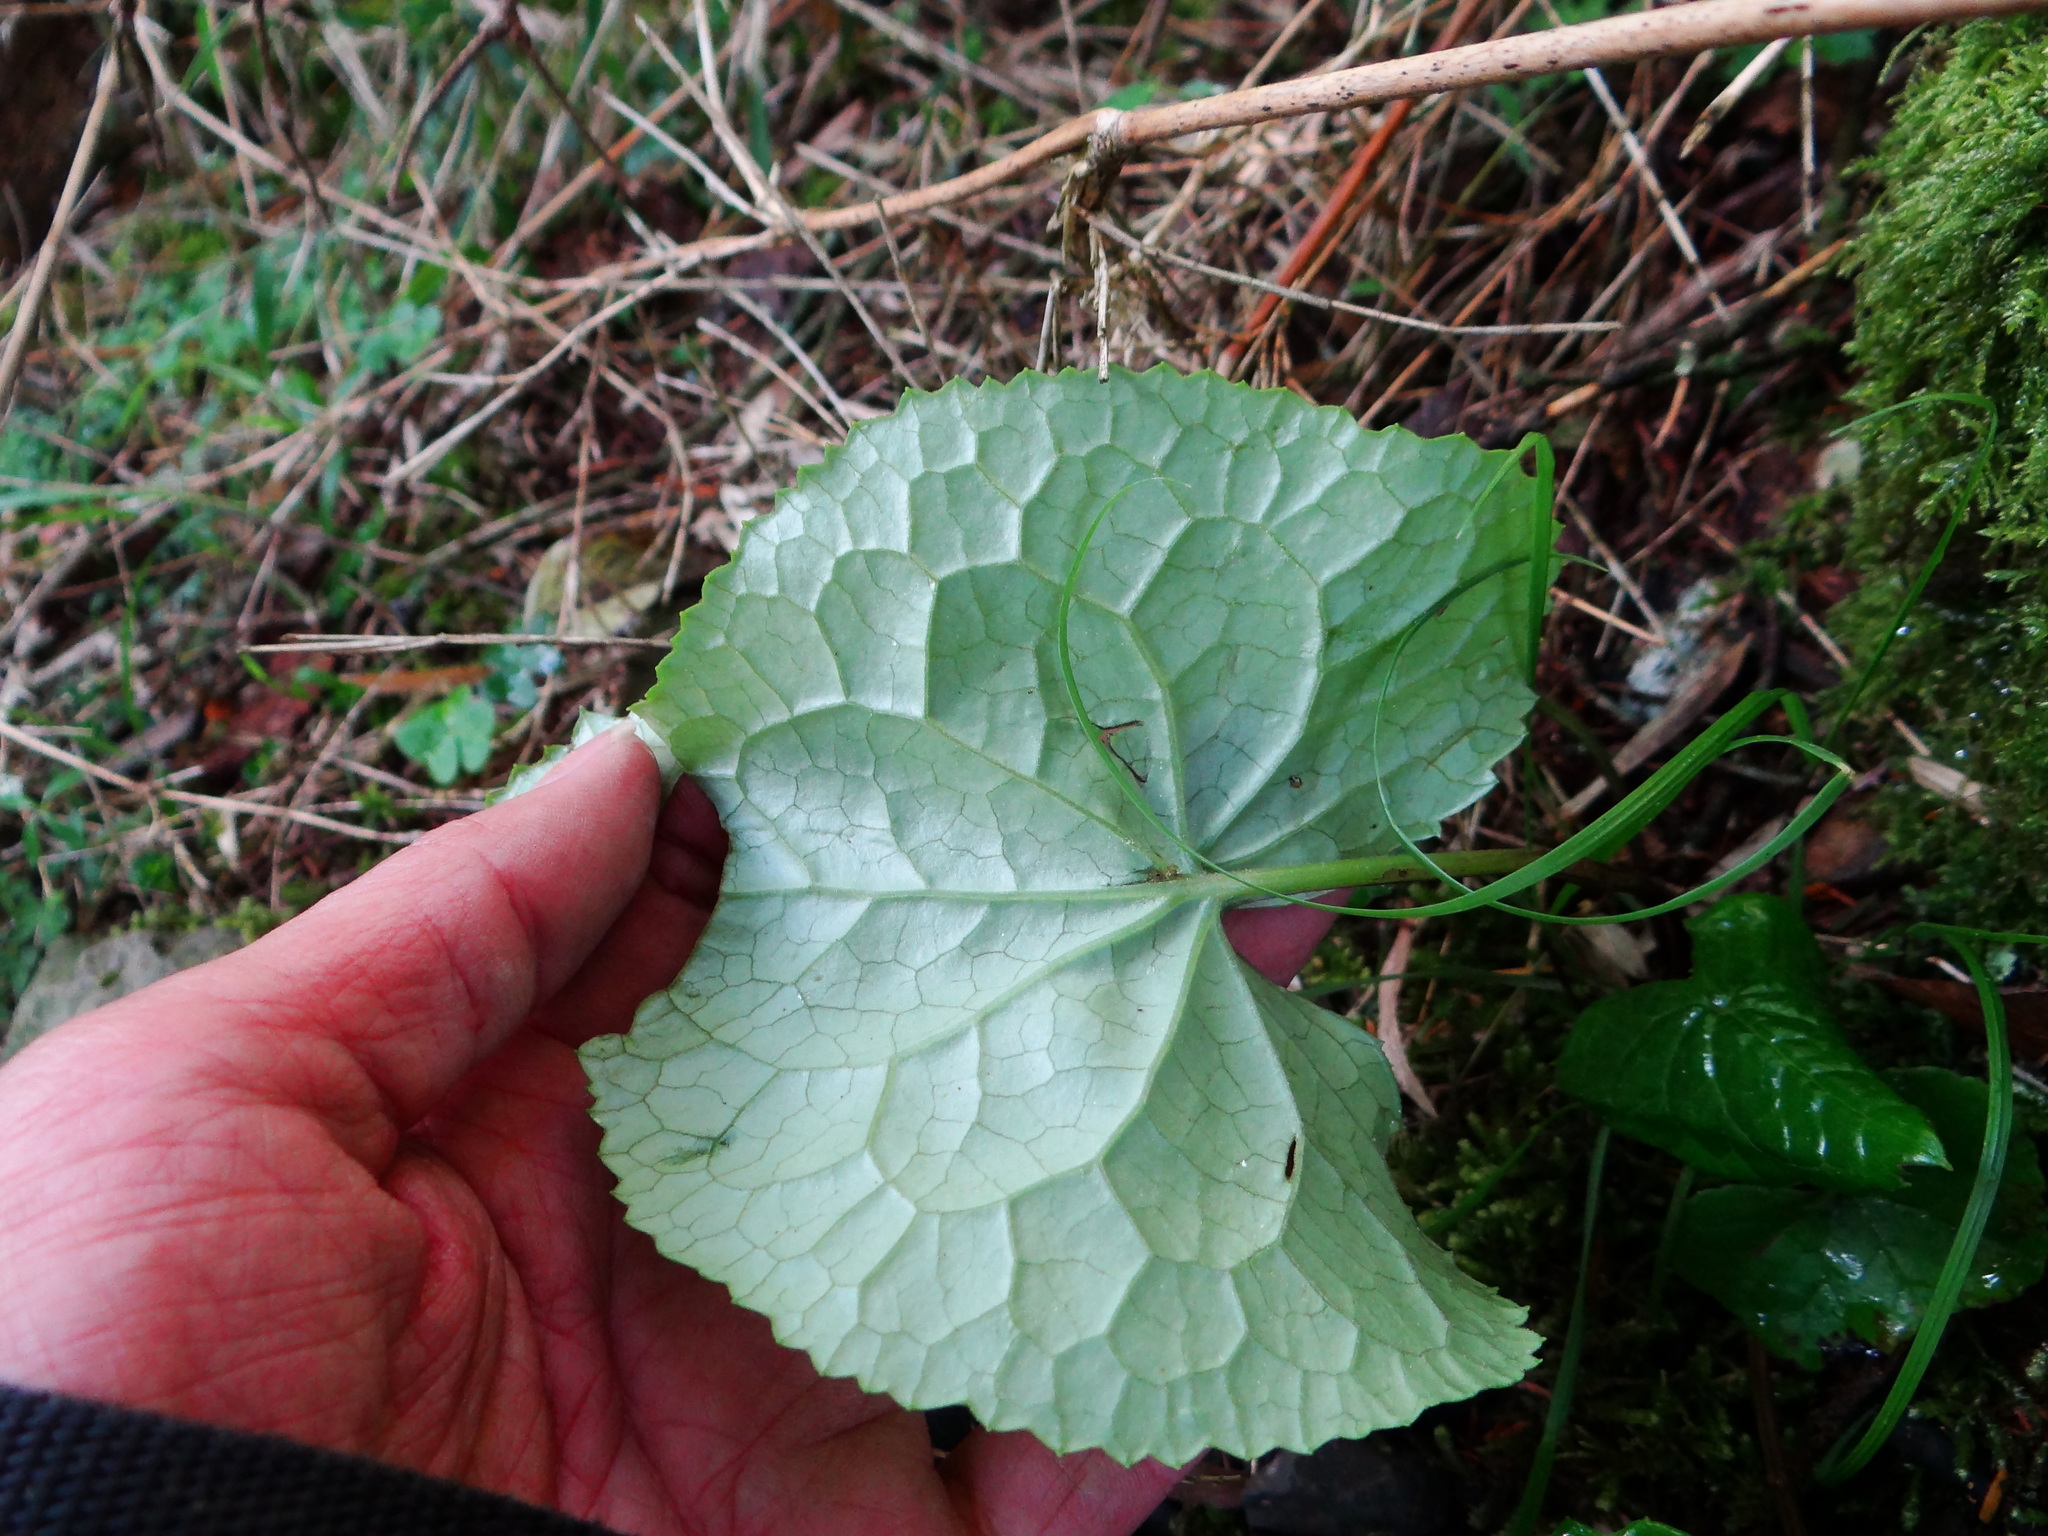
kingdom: Plantae
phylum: Tracheophyta
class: Magnoliopsida
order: Asterales
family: Asteraceae
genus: Ligularia
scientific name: Ligularia kojimae
